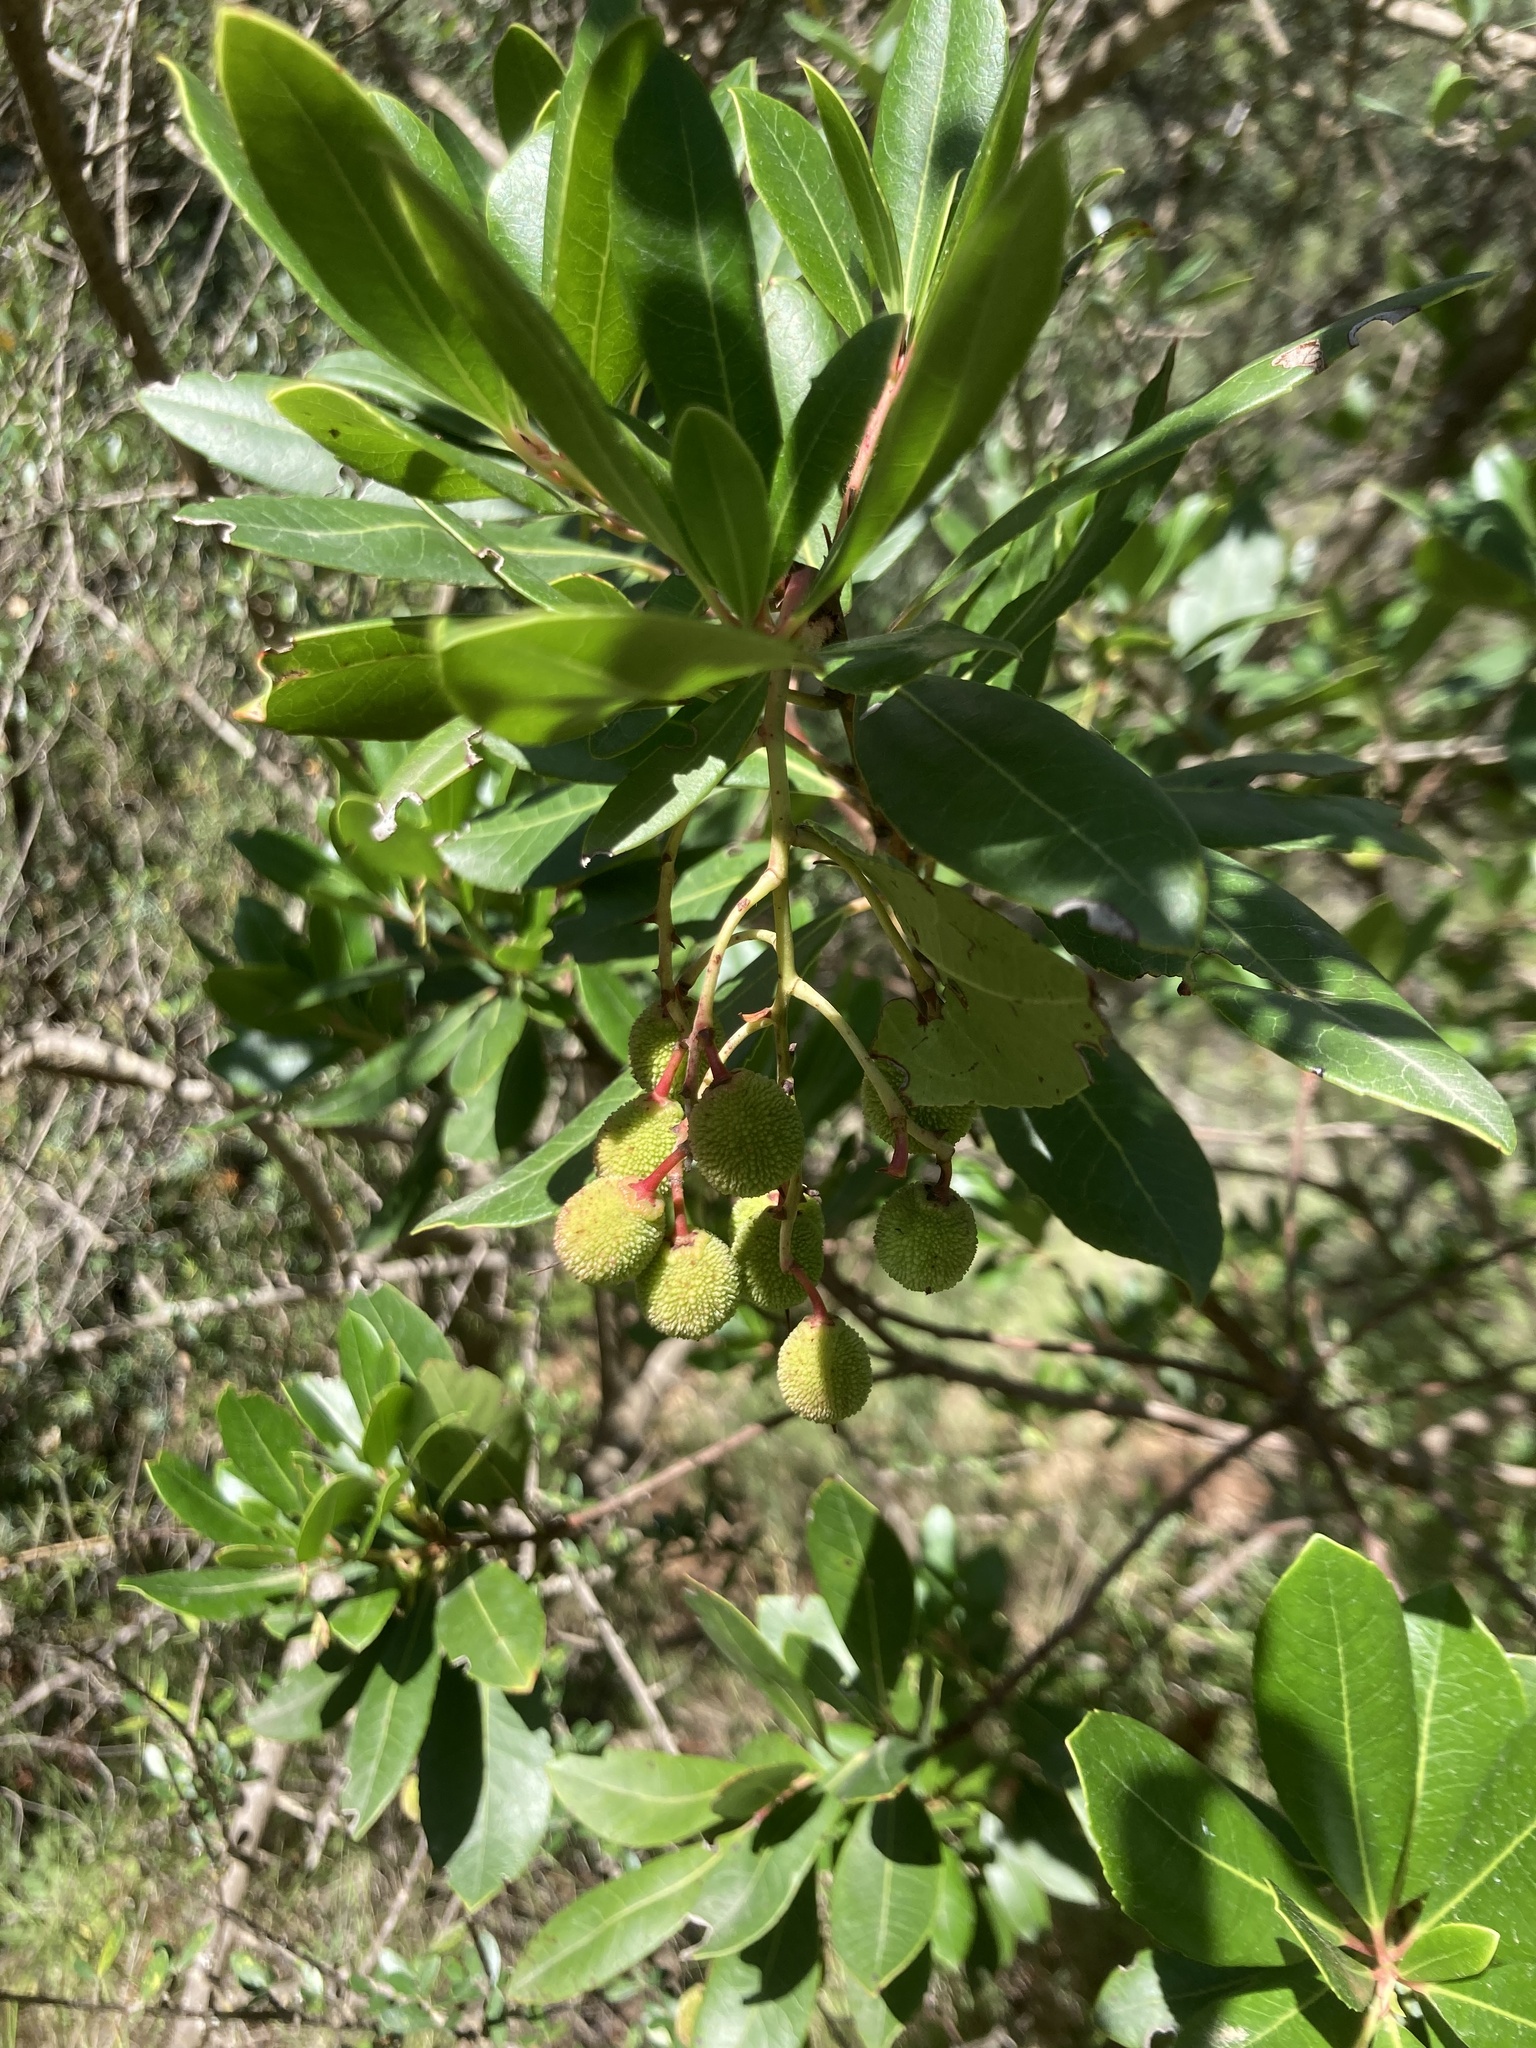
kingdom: Plantae
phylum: Tracheophyta
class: Magnoliopsida
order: Ericales
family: Ericaceae
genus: Arbutus
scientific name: Arbutus unedo
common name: Strawberry-tree
